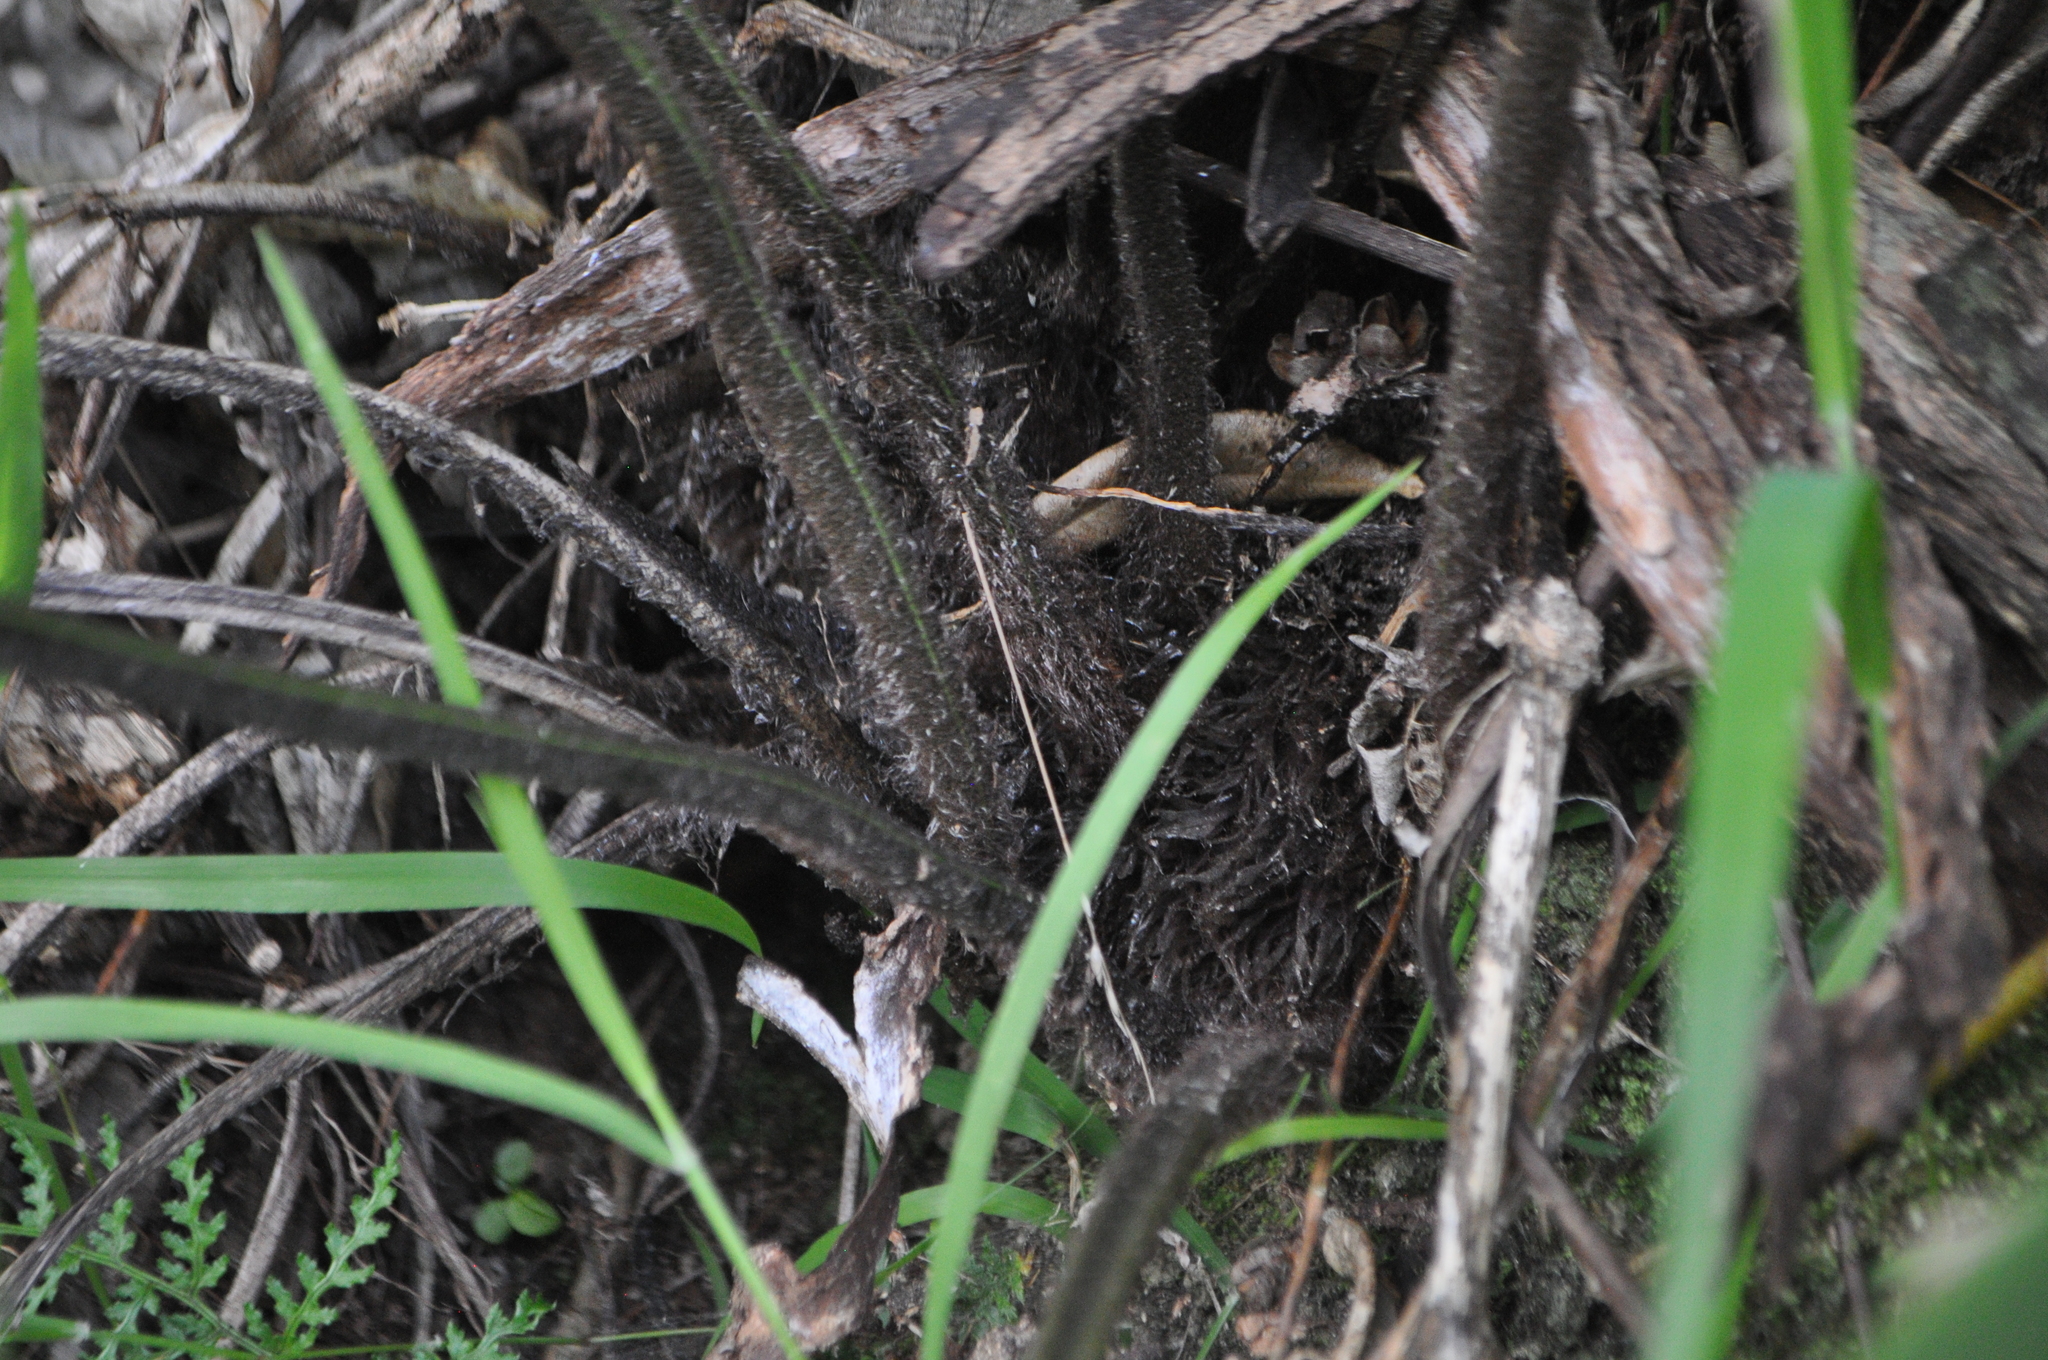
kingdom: Plantae
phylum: Tracheophyta
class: Polypodiopsida
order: Polypodiales
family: Aspleniaceae
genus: Asplenium
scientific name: Asplenium oblongifolium
